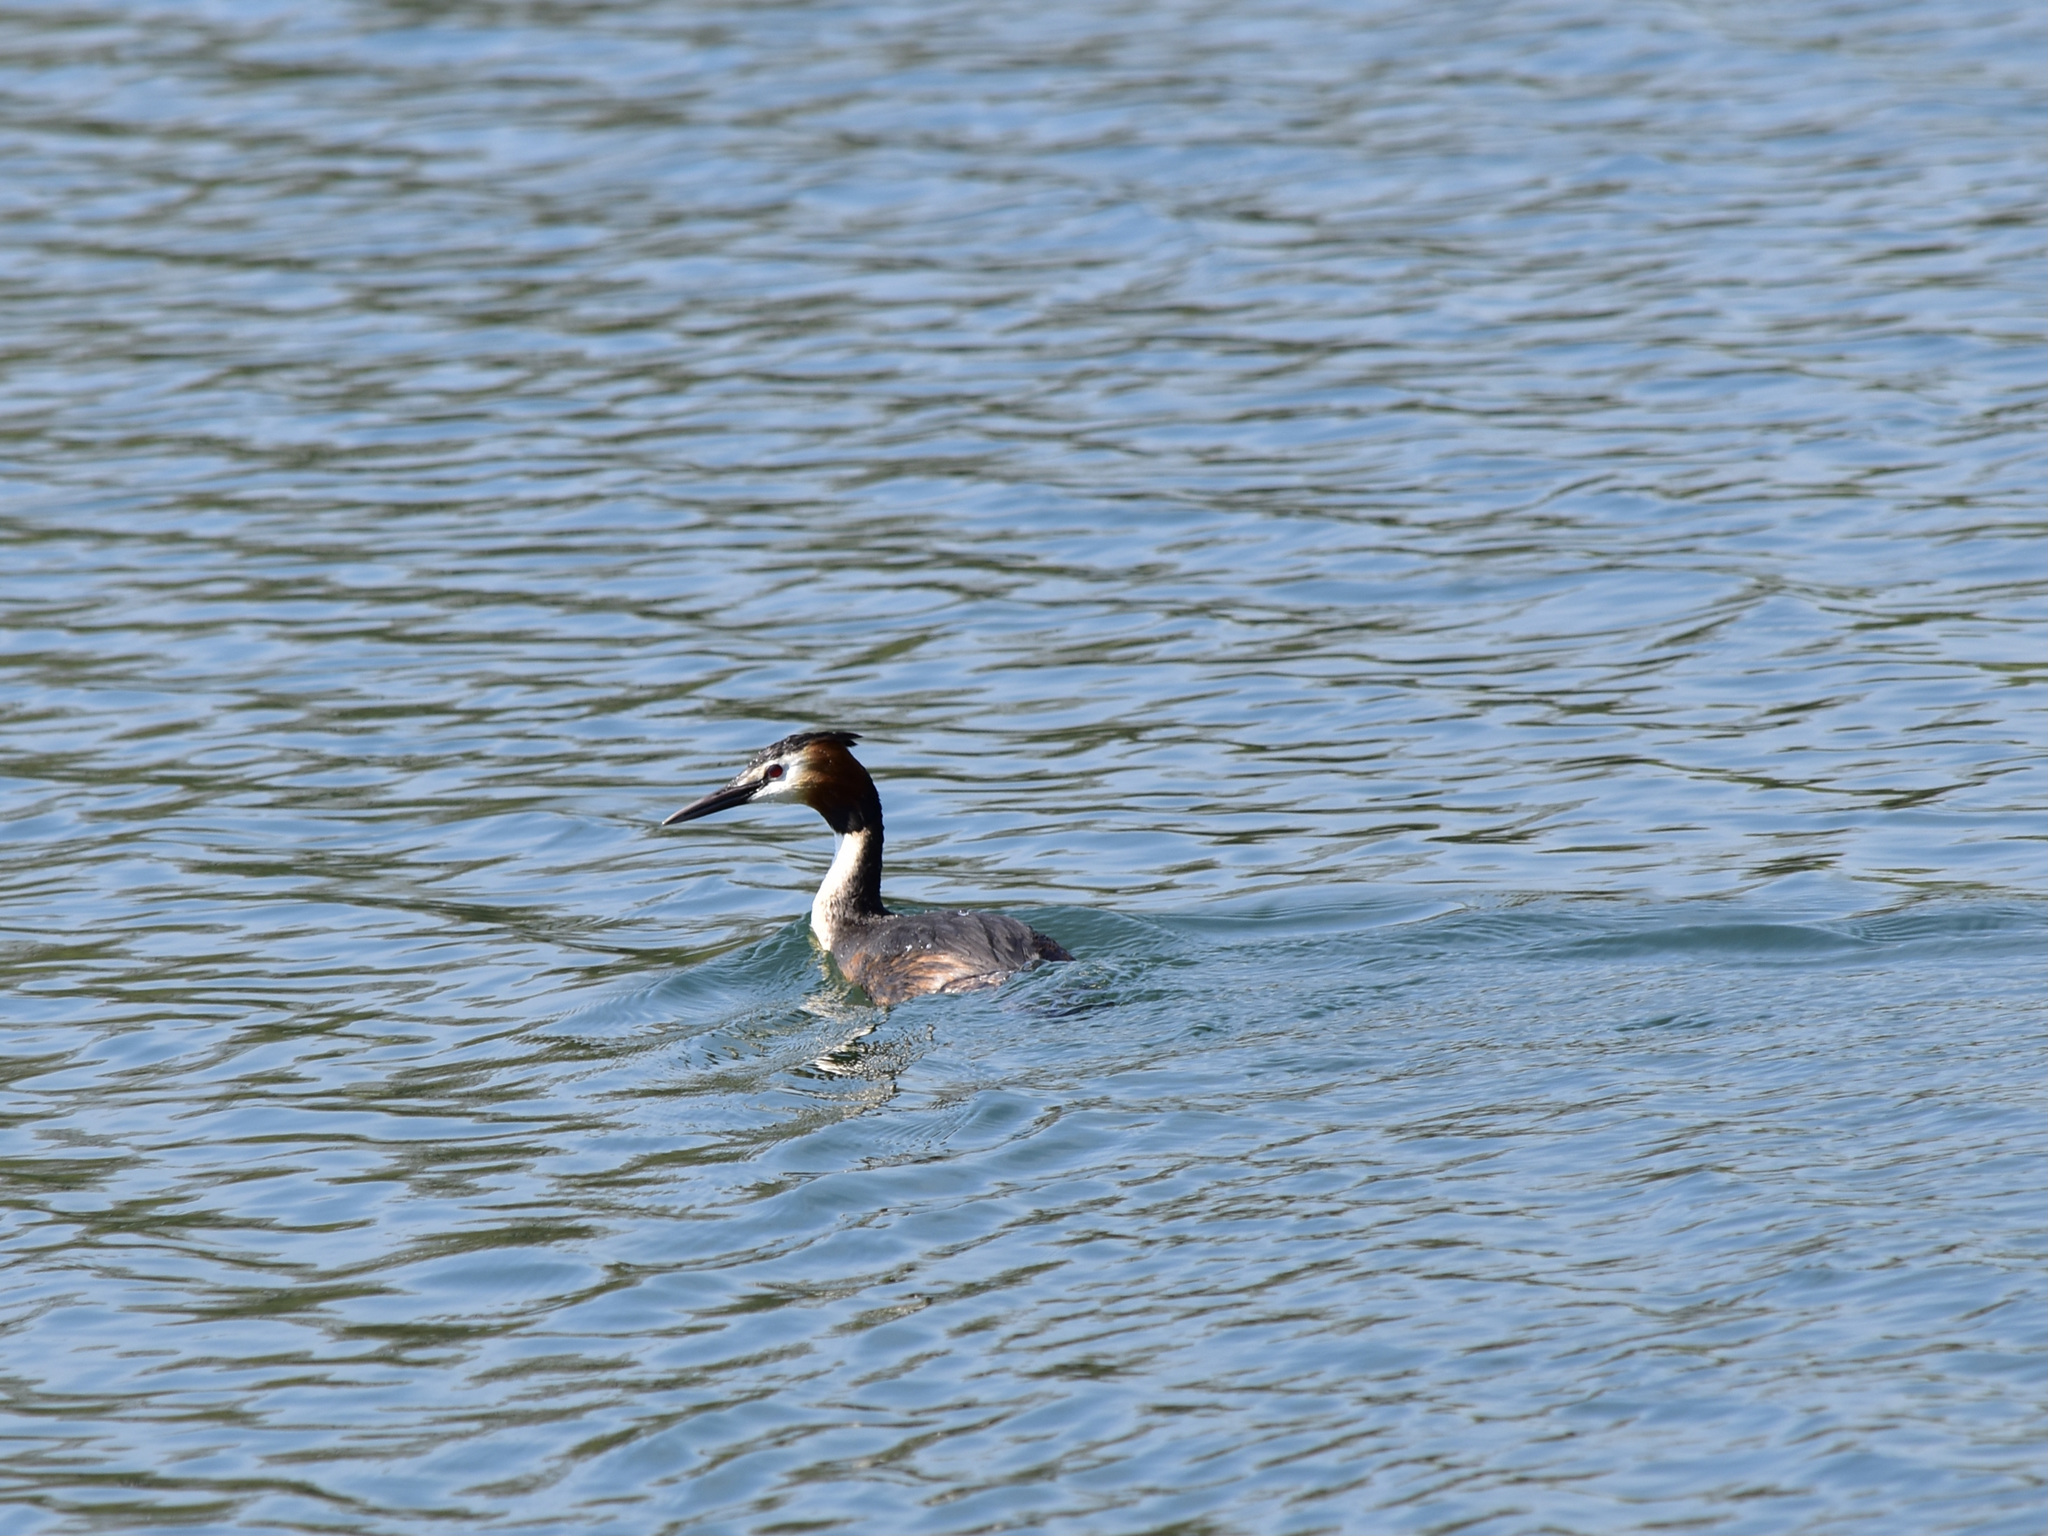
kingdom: Animalia
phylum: Chordata
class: Aves
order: Podicipediformes
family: Podicipedidae
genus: Podiceps
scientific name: Podiceps cristatus
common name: Great crested grebe
